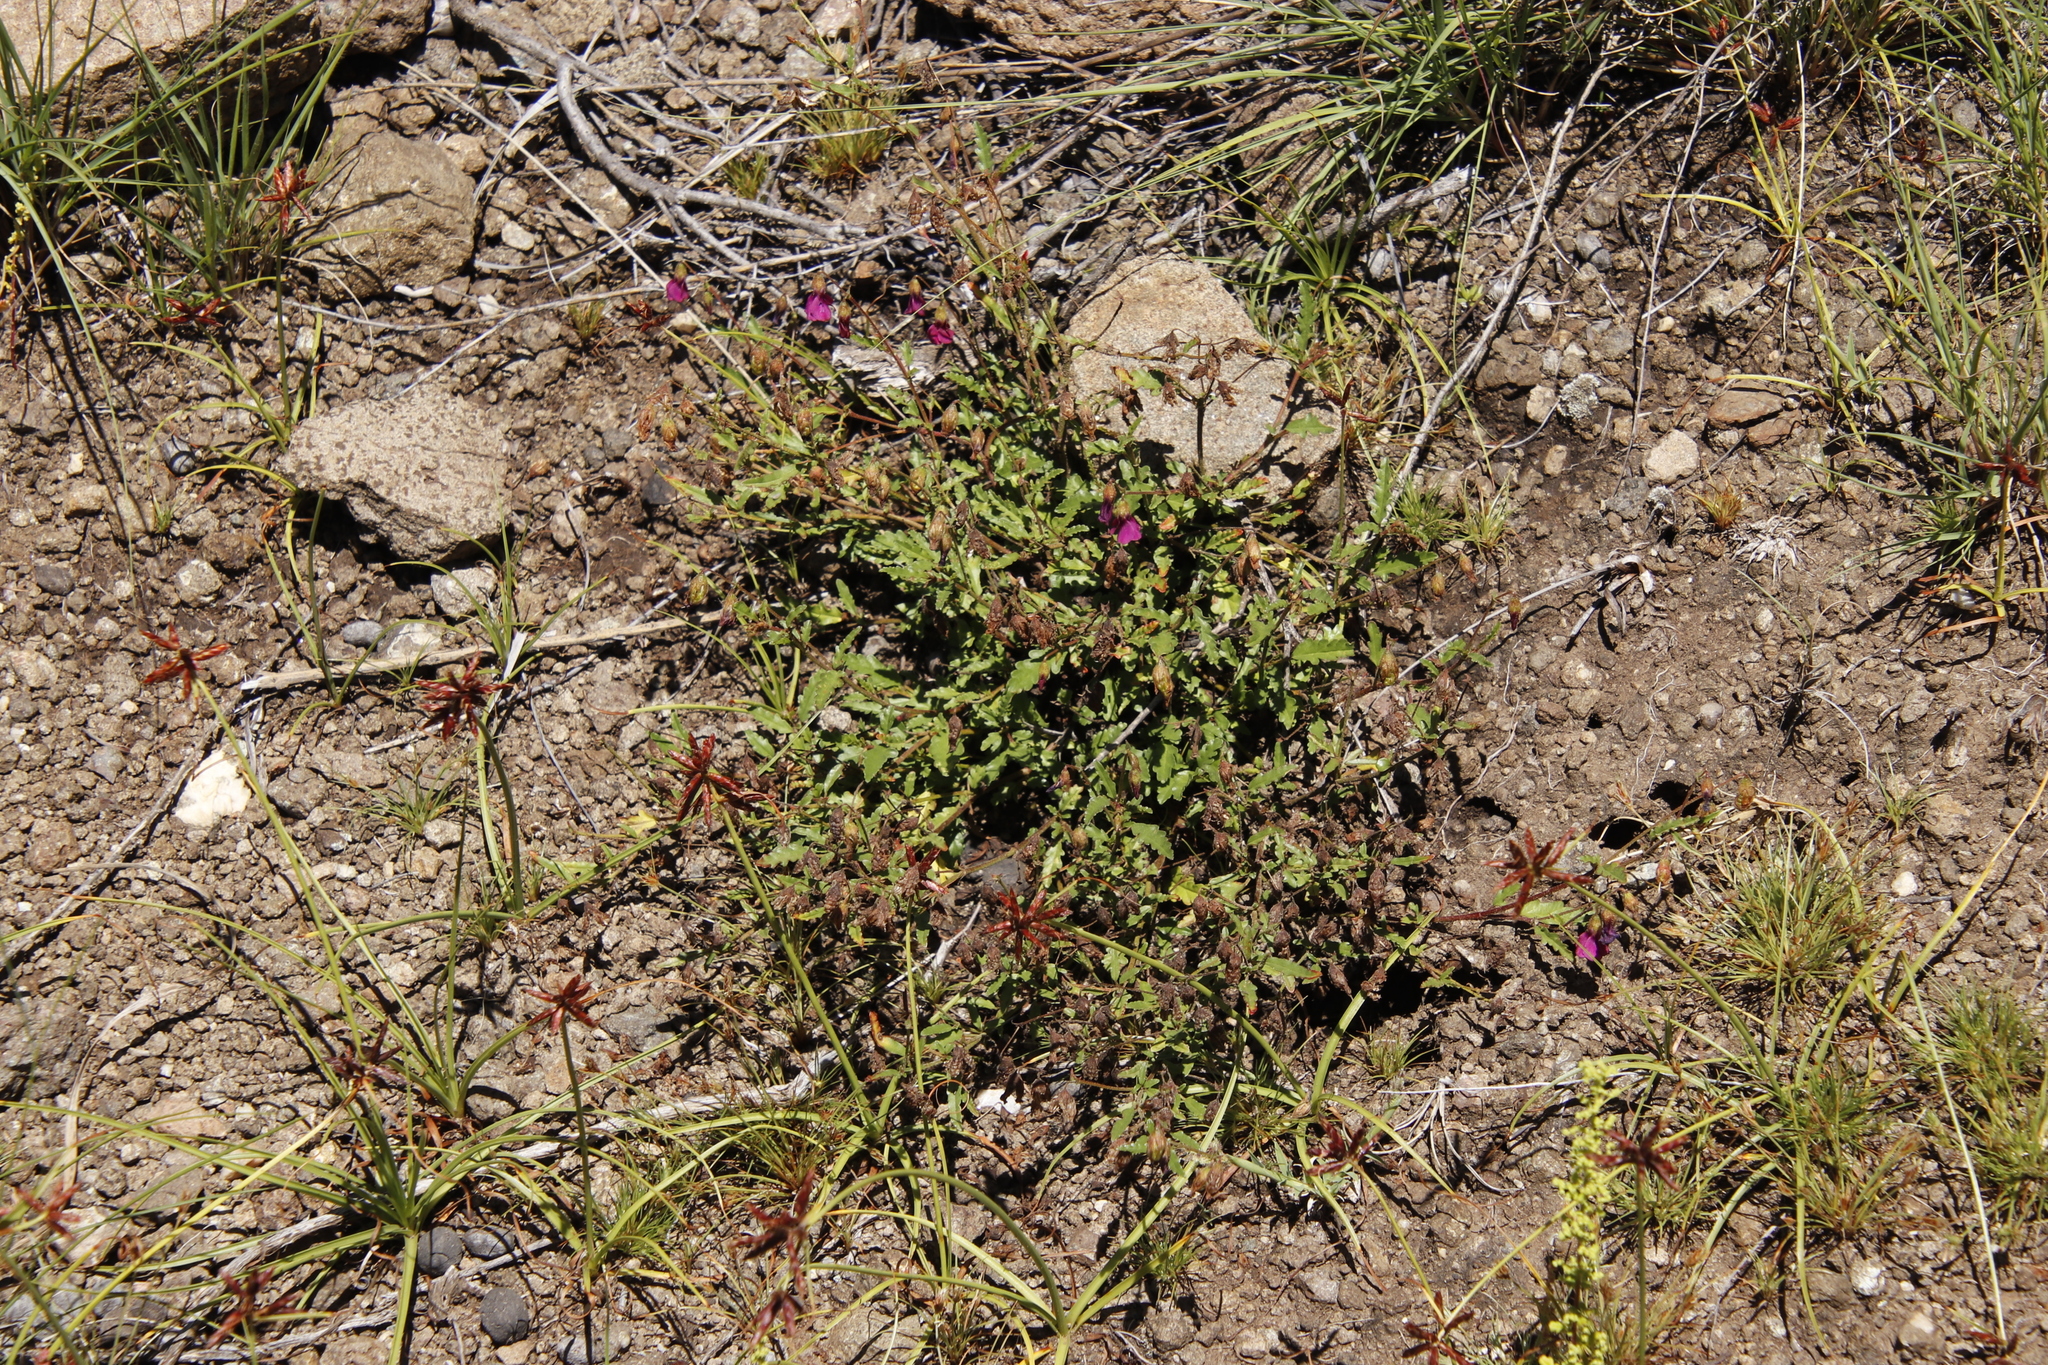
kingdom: Plantae
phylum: Tracheophyta
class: Magnoliopsida
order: Malvales
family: Malvaceae
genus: Hermannia
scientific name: Hermannia coccocarpa
